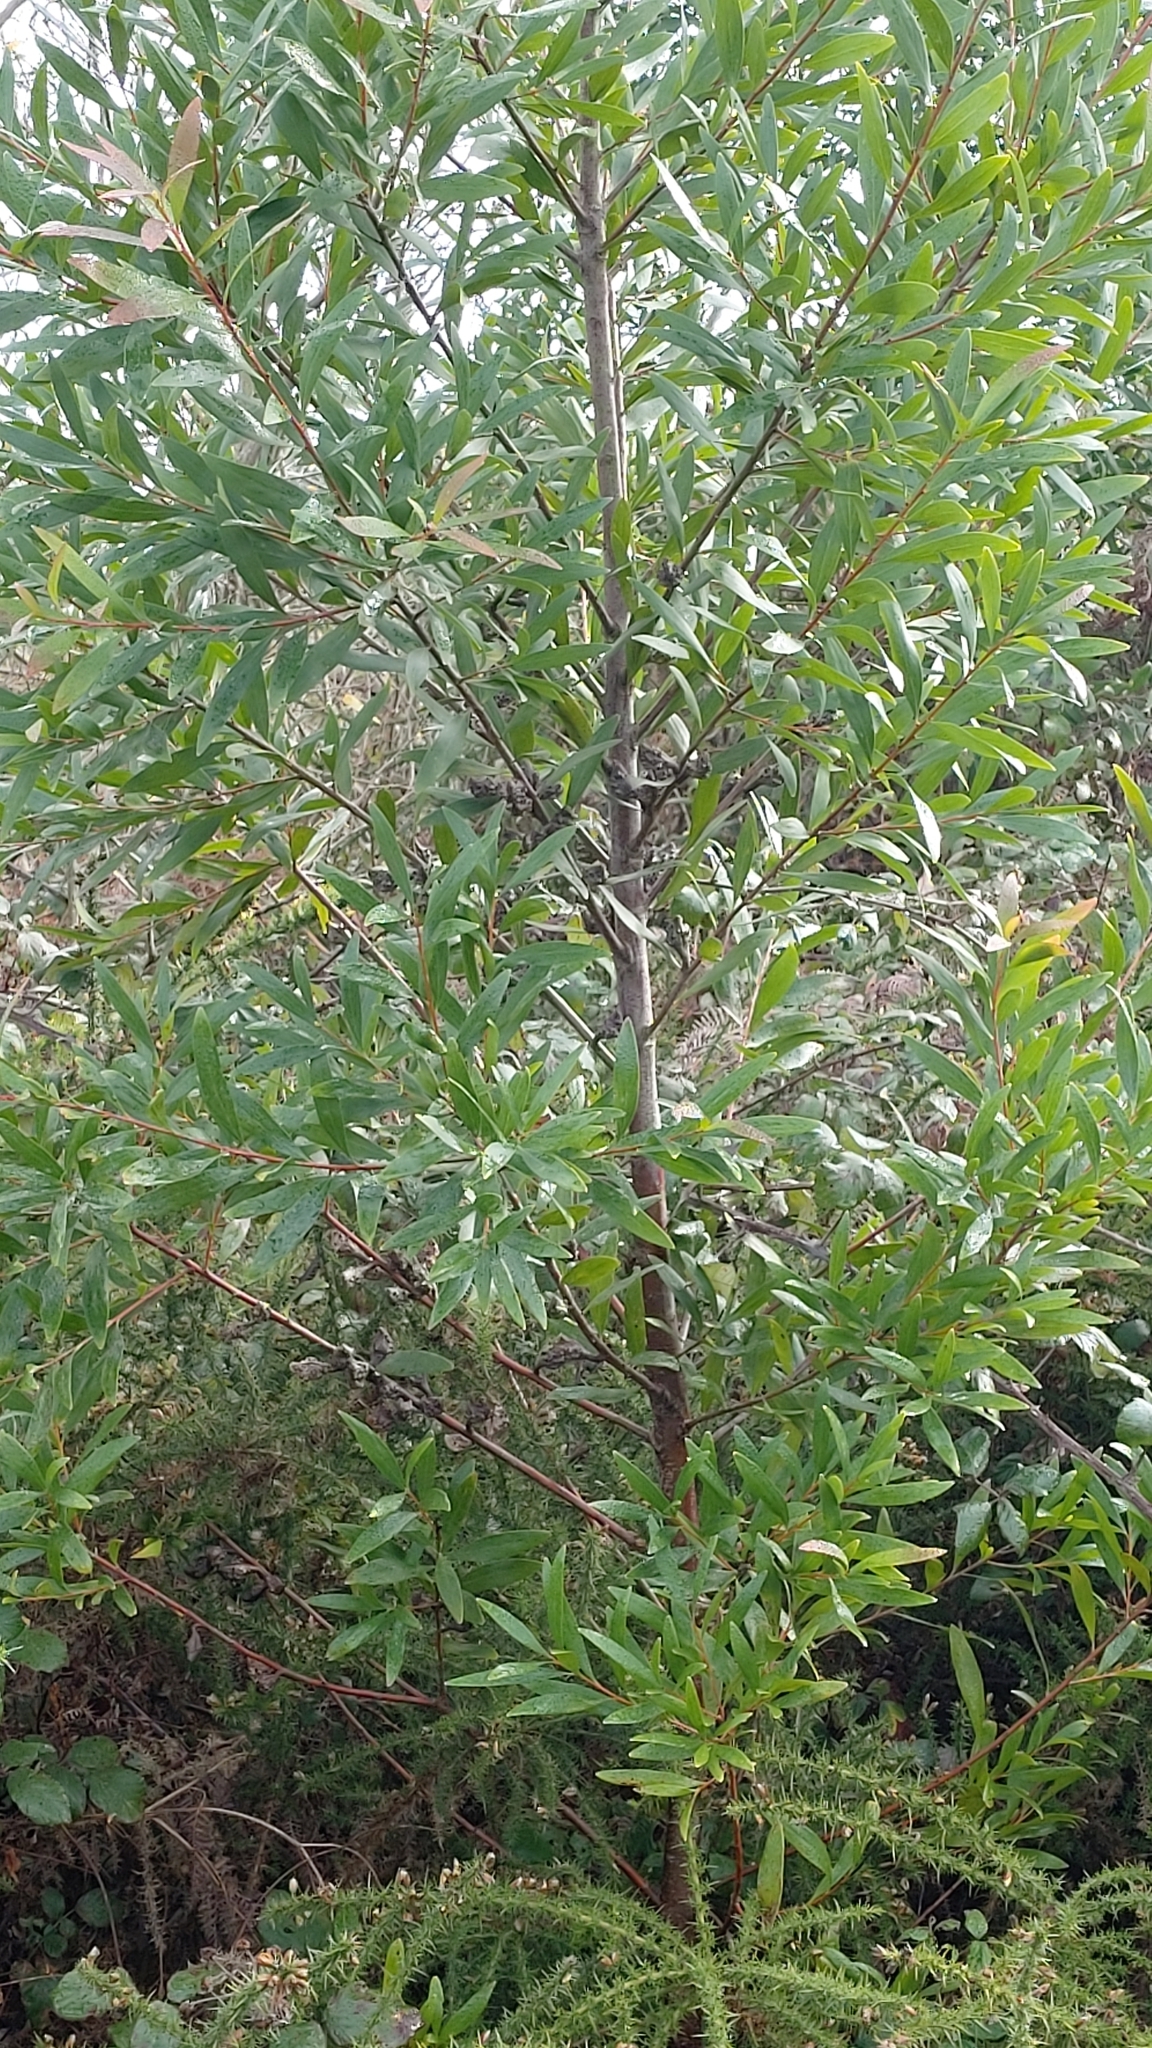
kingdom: Plantae
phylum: Tracheophyta
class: Magnoliopsida
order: Proteales
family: Proteaceae
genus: Hakea
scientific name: Hakea salicifolia
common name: Willow hakea
